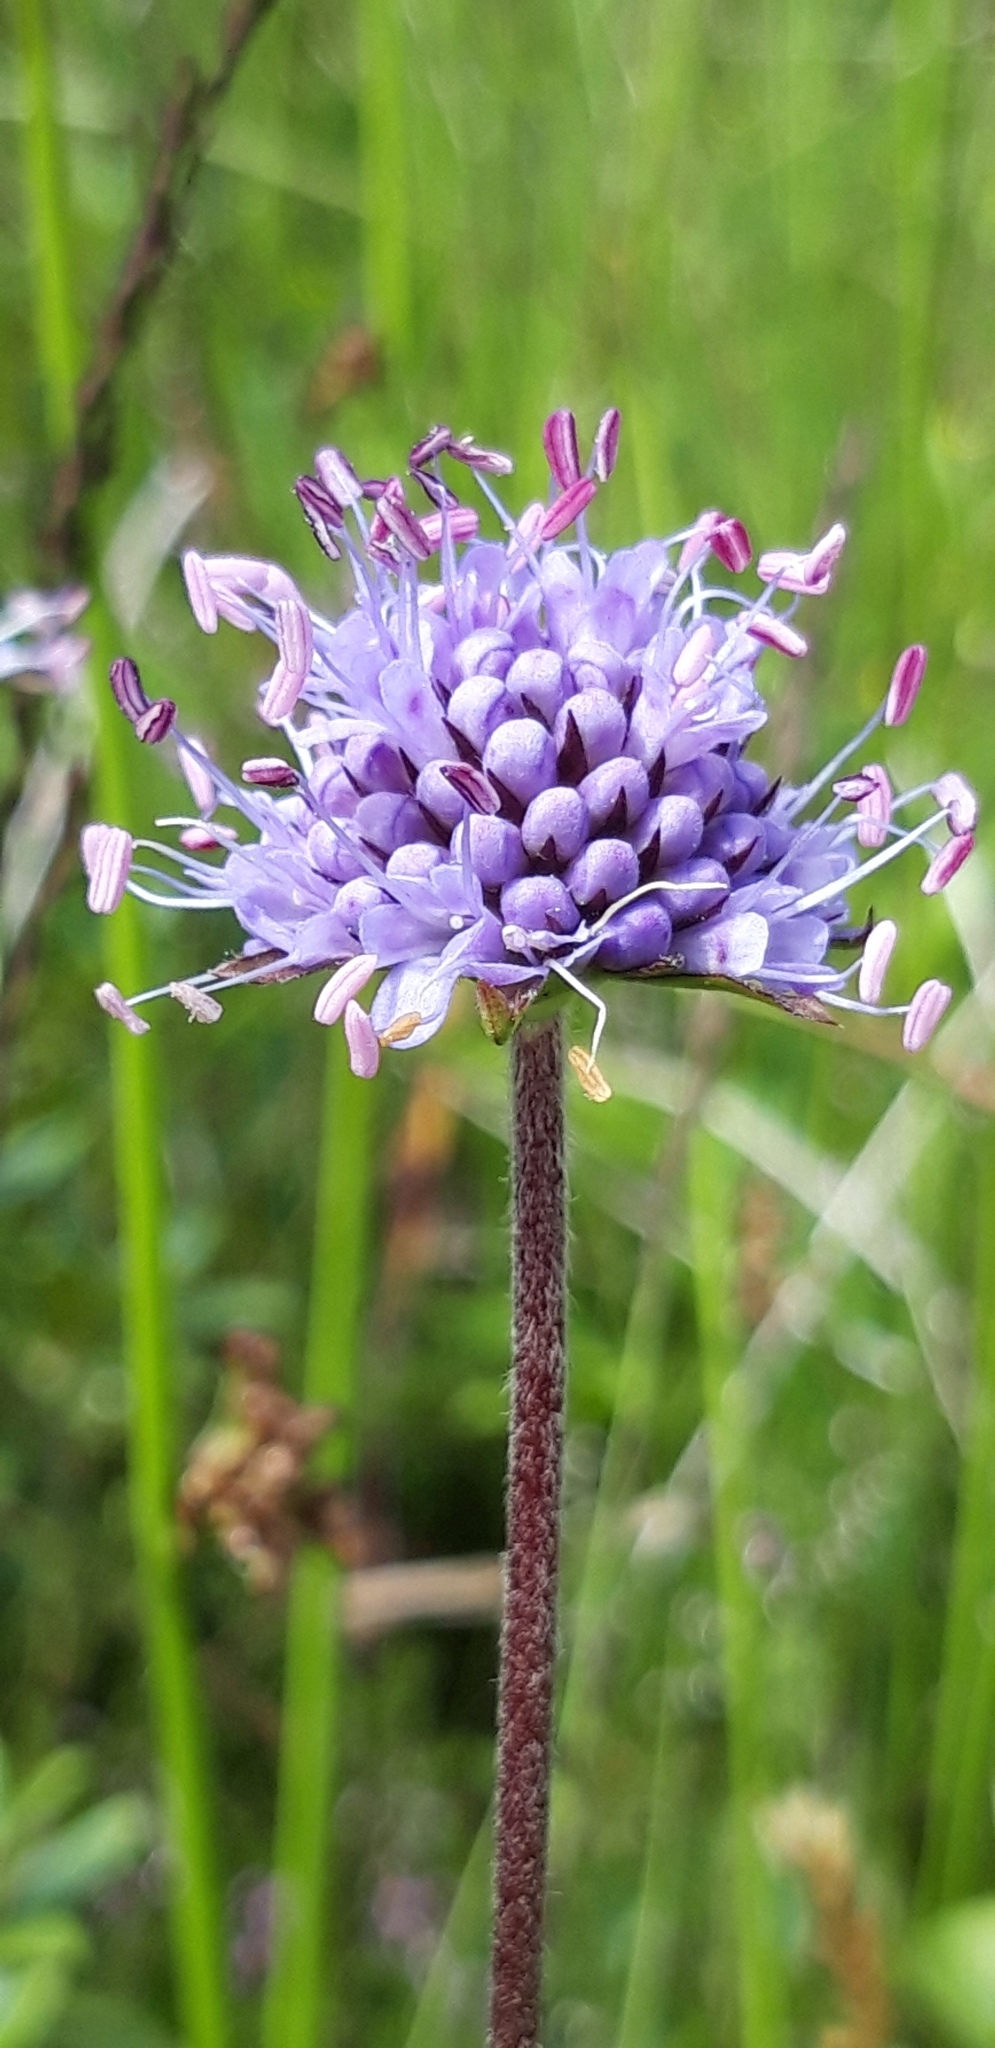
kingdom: Plantae
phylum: Tracheophyta
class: Magnoliopsida
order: Dipsacales
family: Caprifoliaceae
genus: Succisa
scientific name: Succisa pratensis
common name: Devil's-bit
